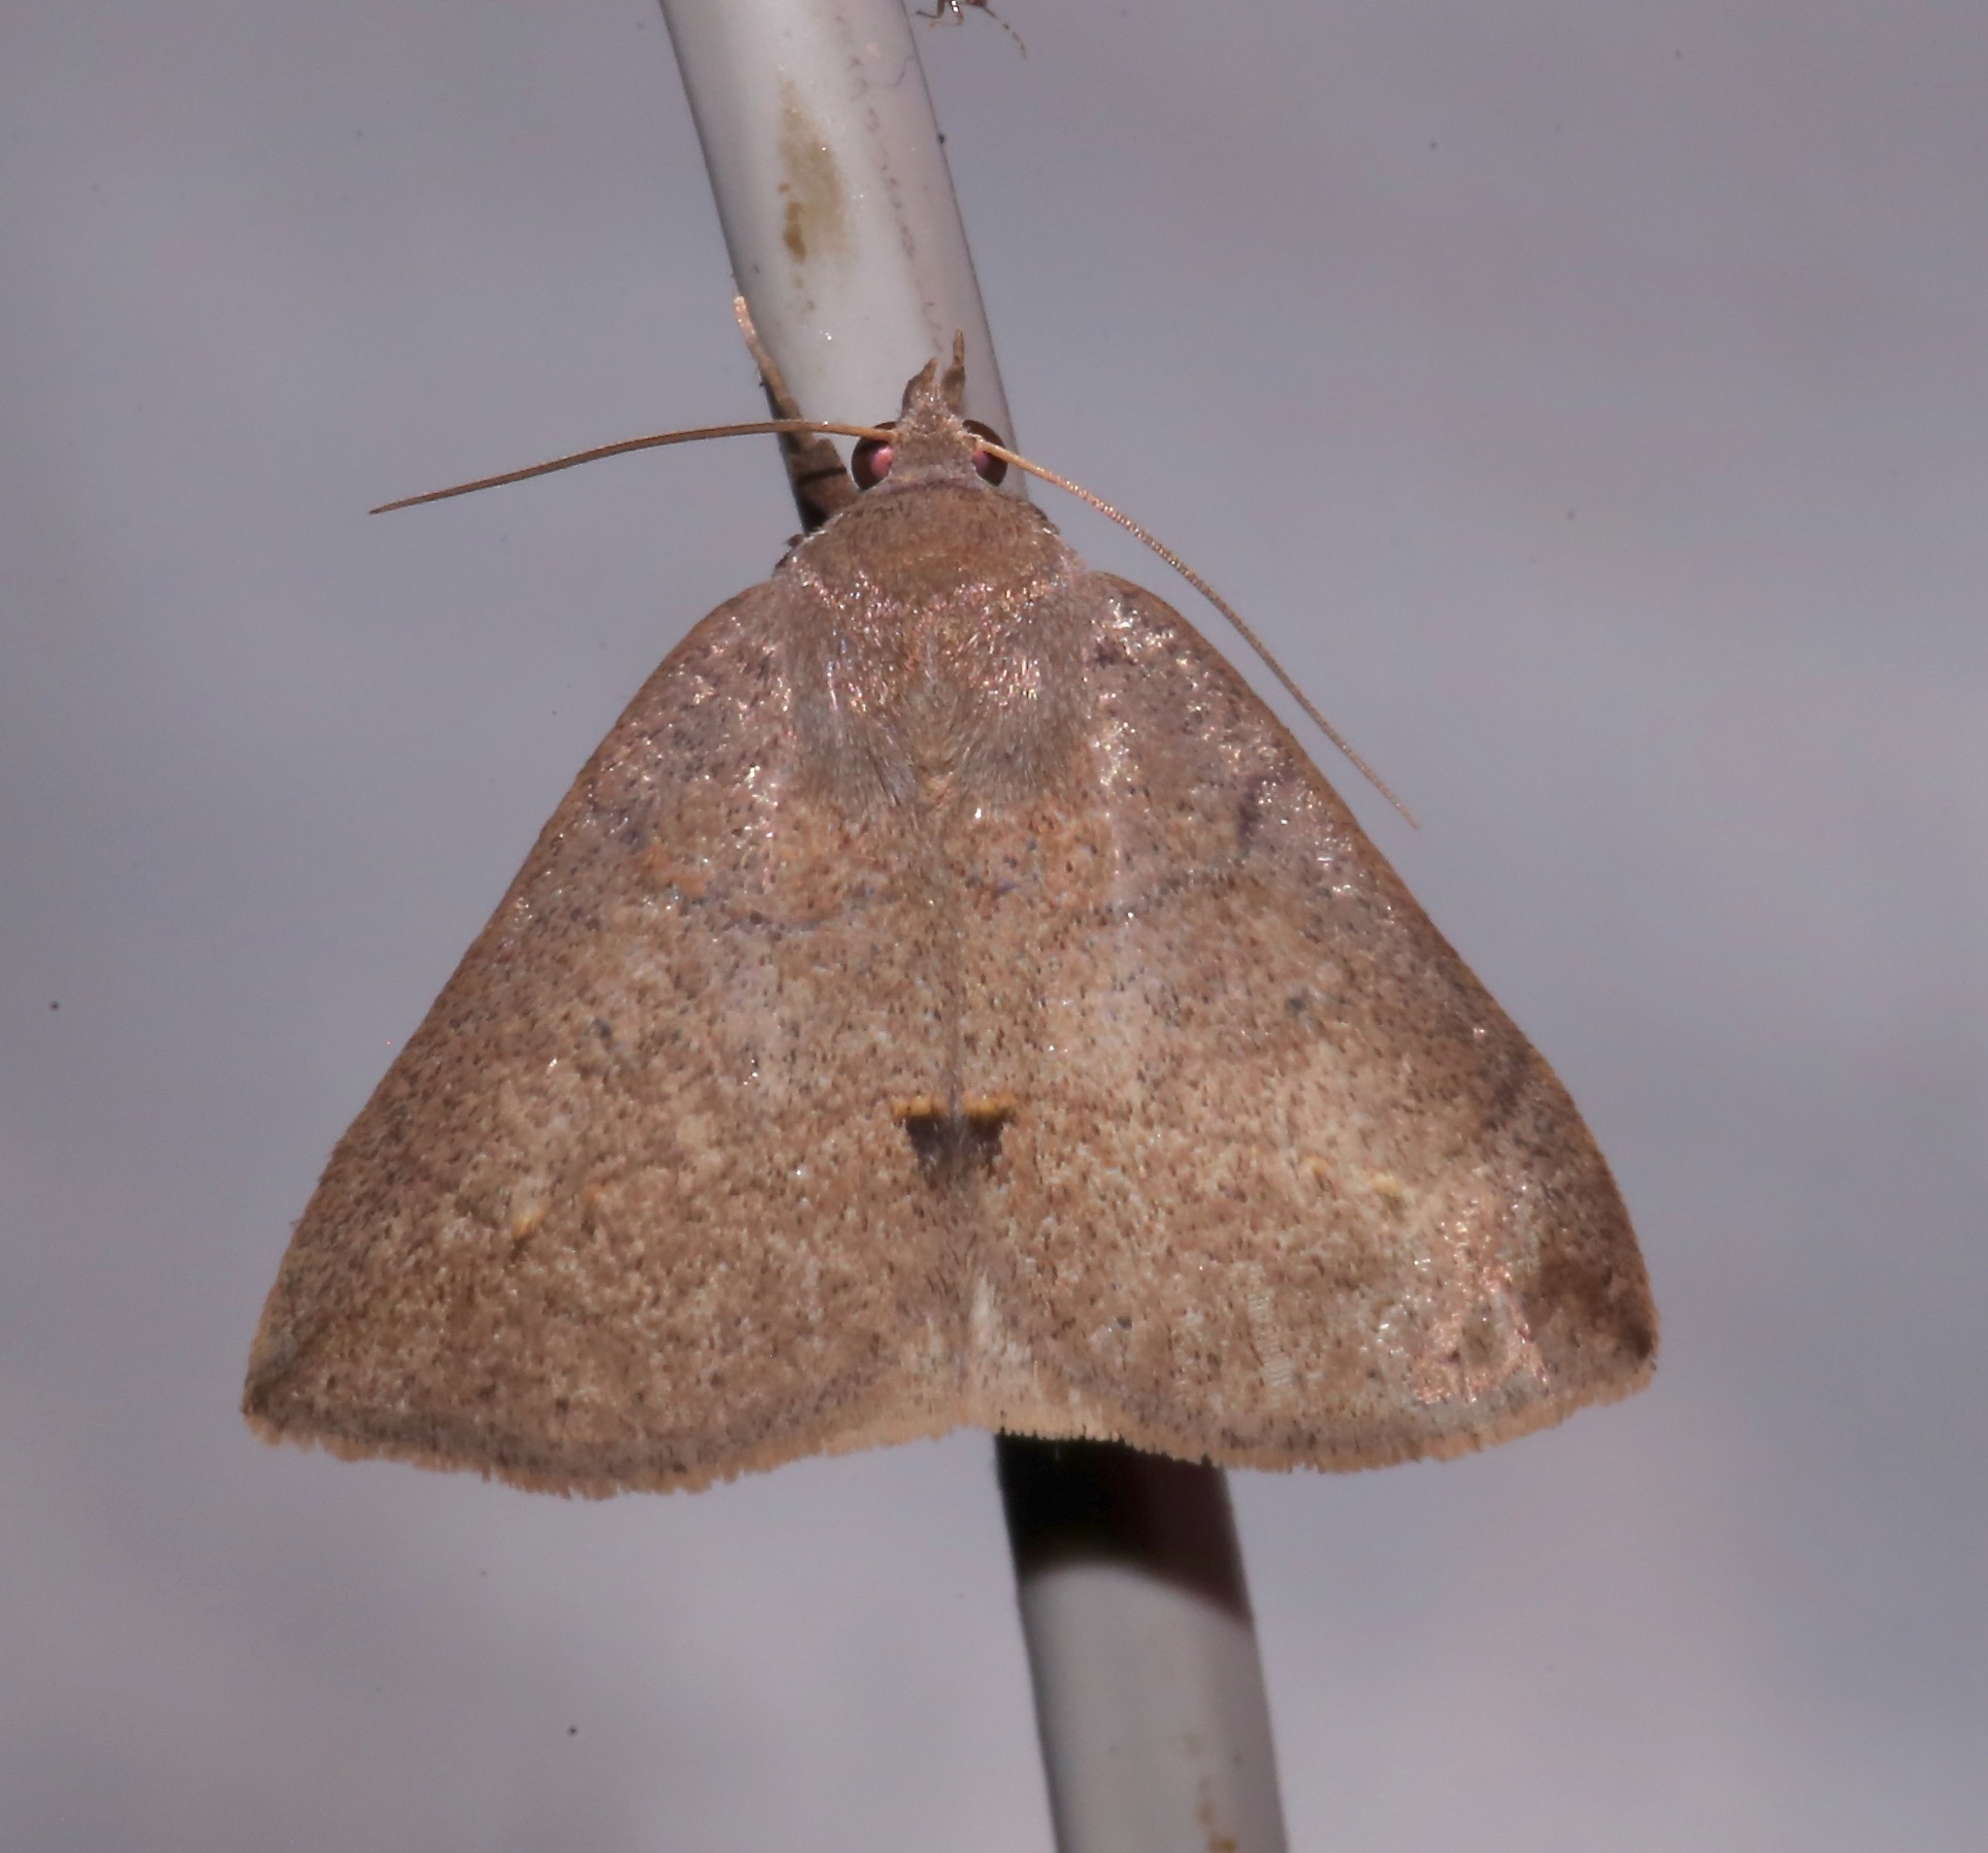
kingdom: Animalia
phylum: Arthropoda
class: Insecta
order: Lepidoptera
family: Erebidae
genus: Argyrostrotis
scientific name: Argyrostrotis flavistriaria
